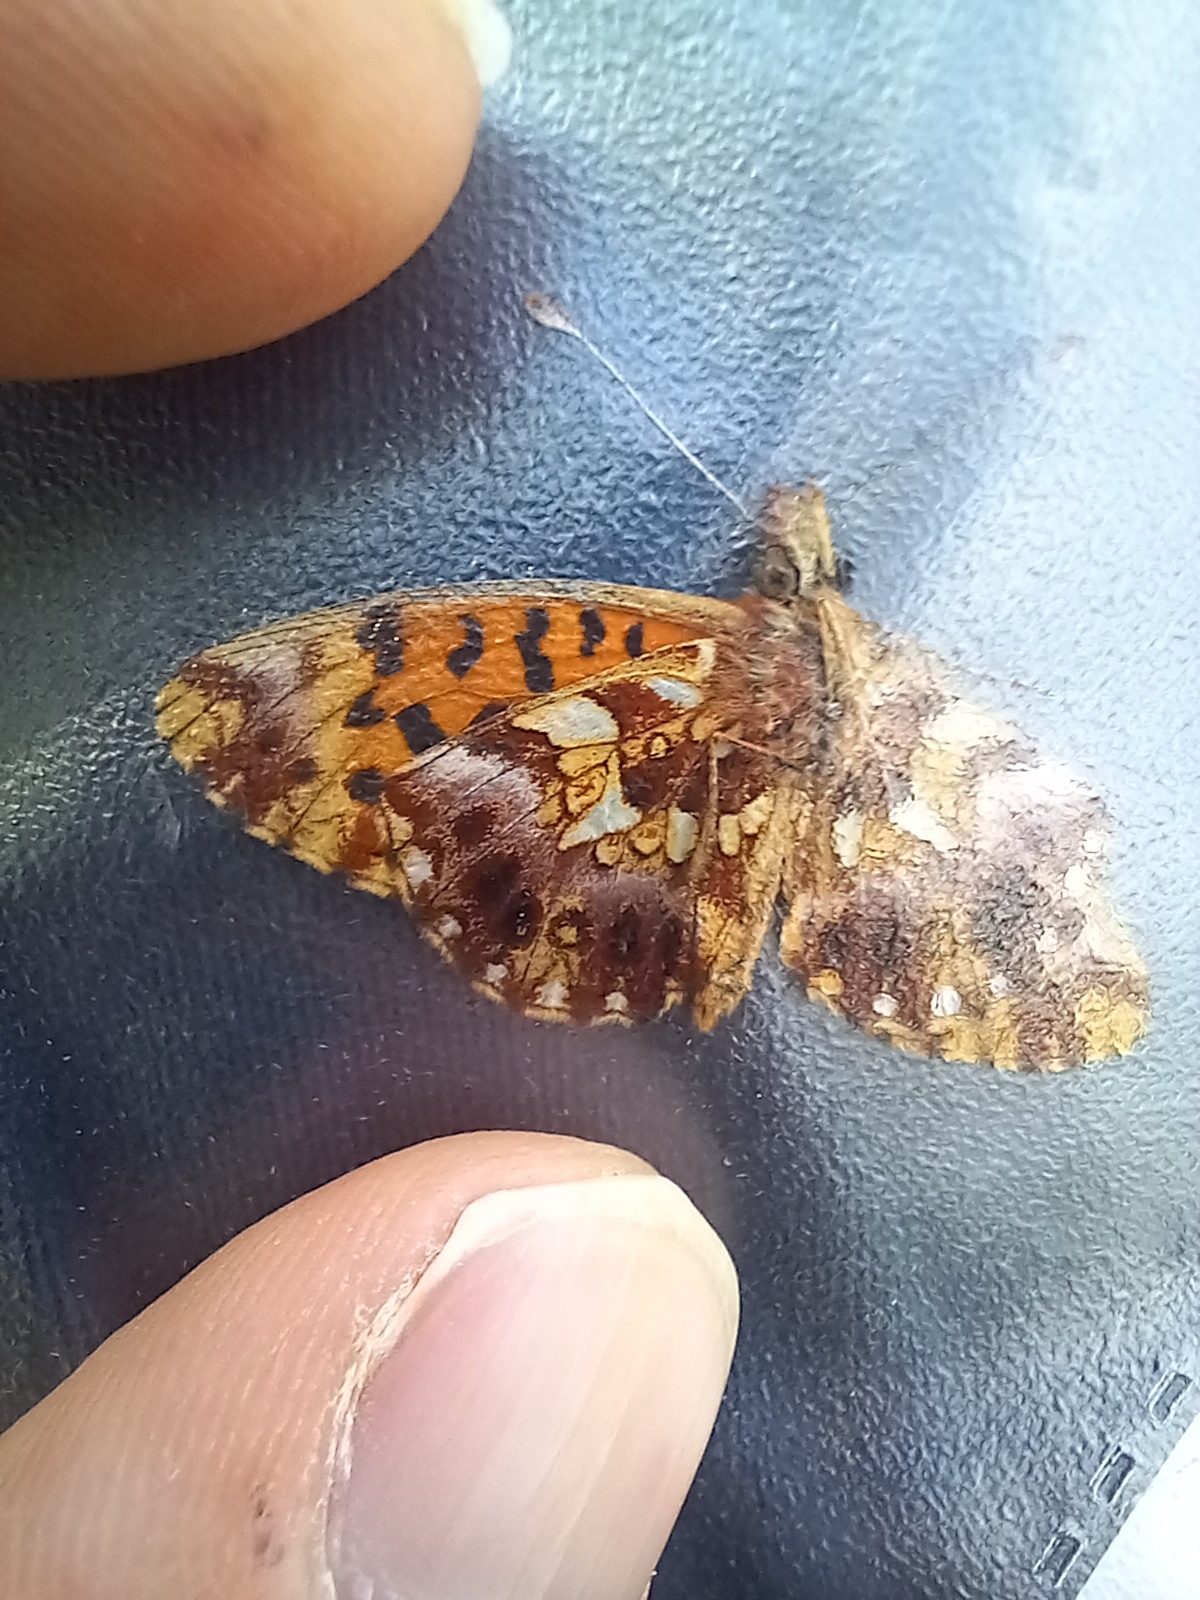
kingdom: Animalia
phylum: Arthropoda
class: Insecta
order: Lepidoptera
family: Nymphalidae
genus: Boloria
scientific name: Boloria dia
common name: Weaver's fritillary
